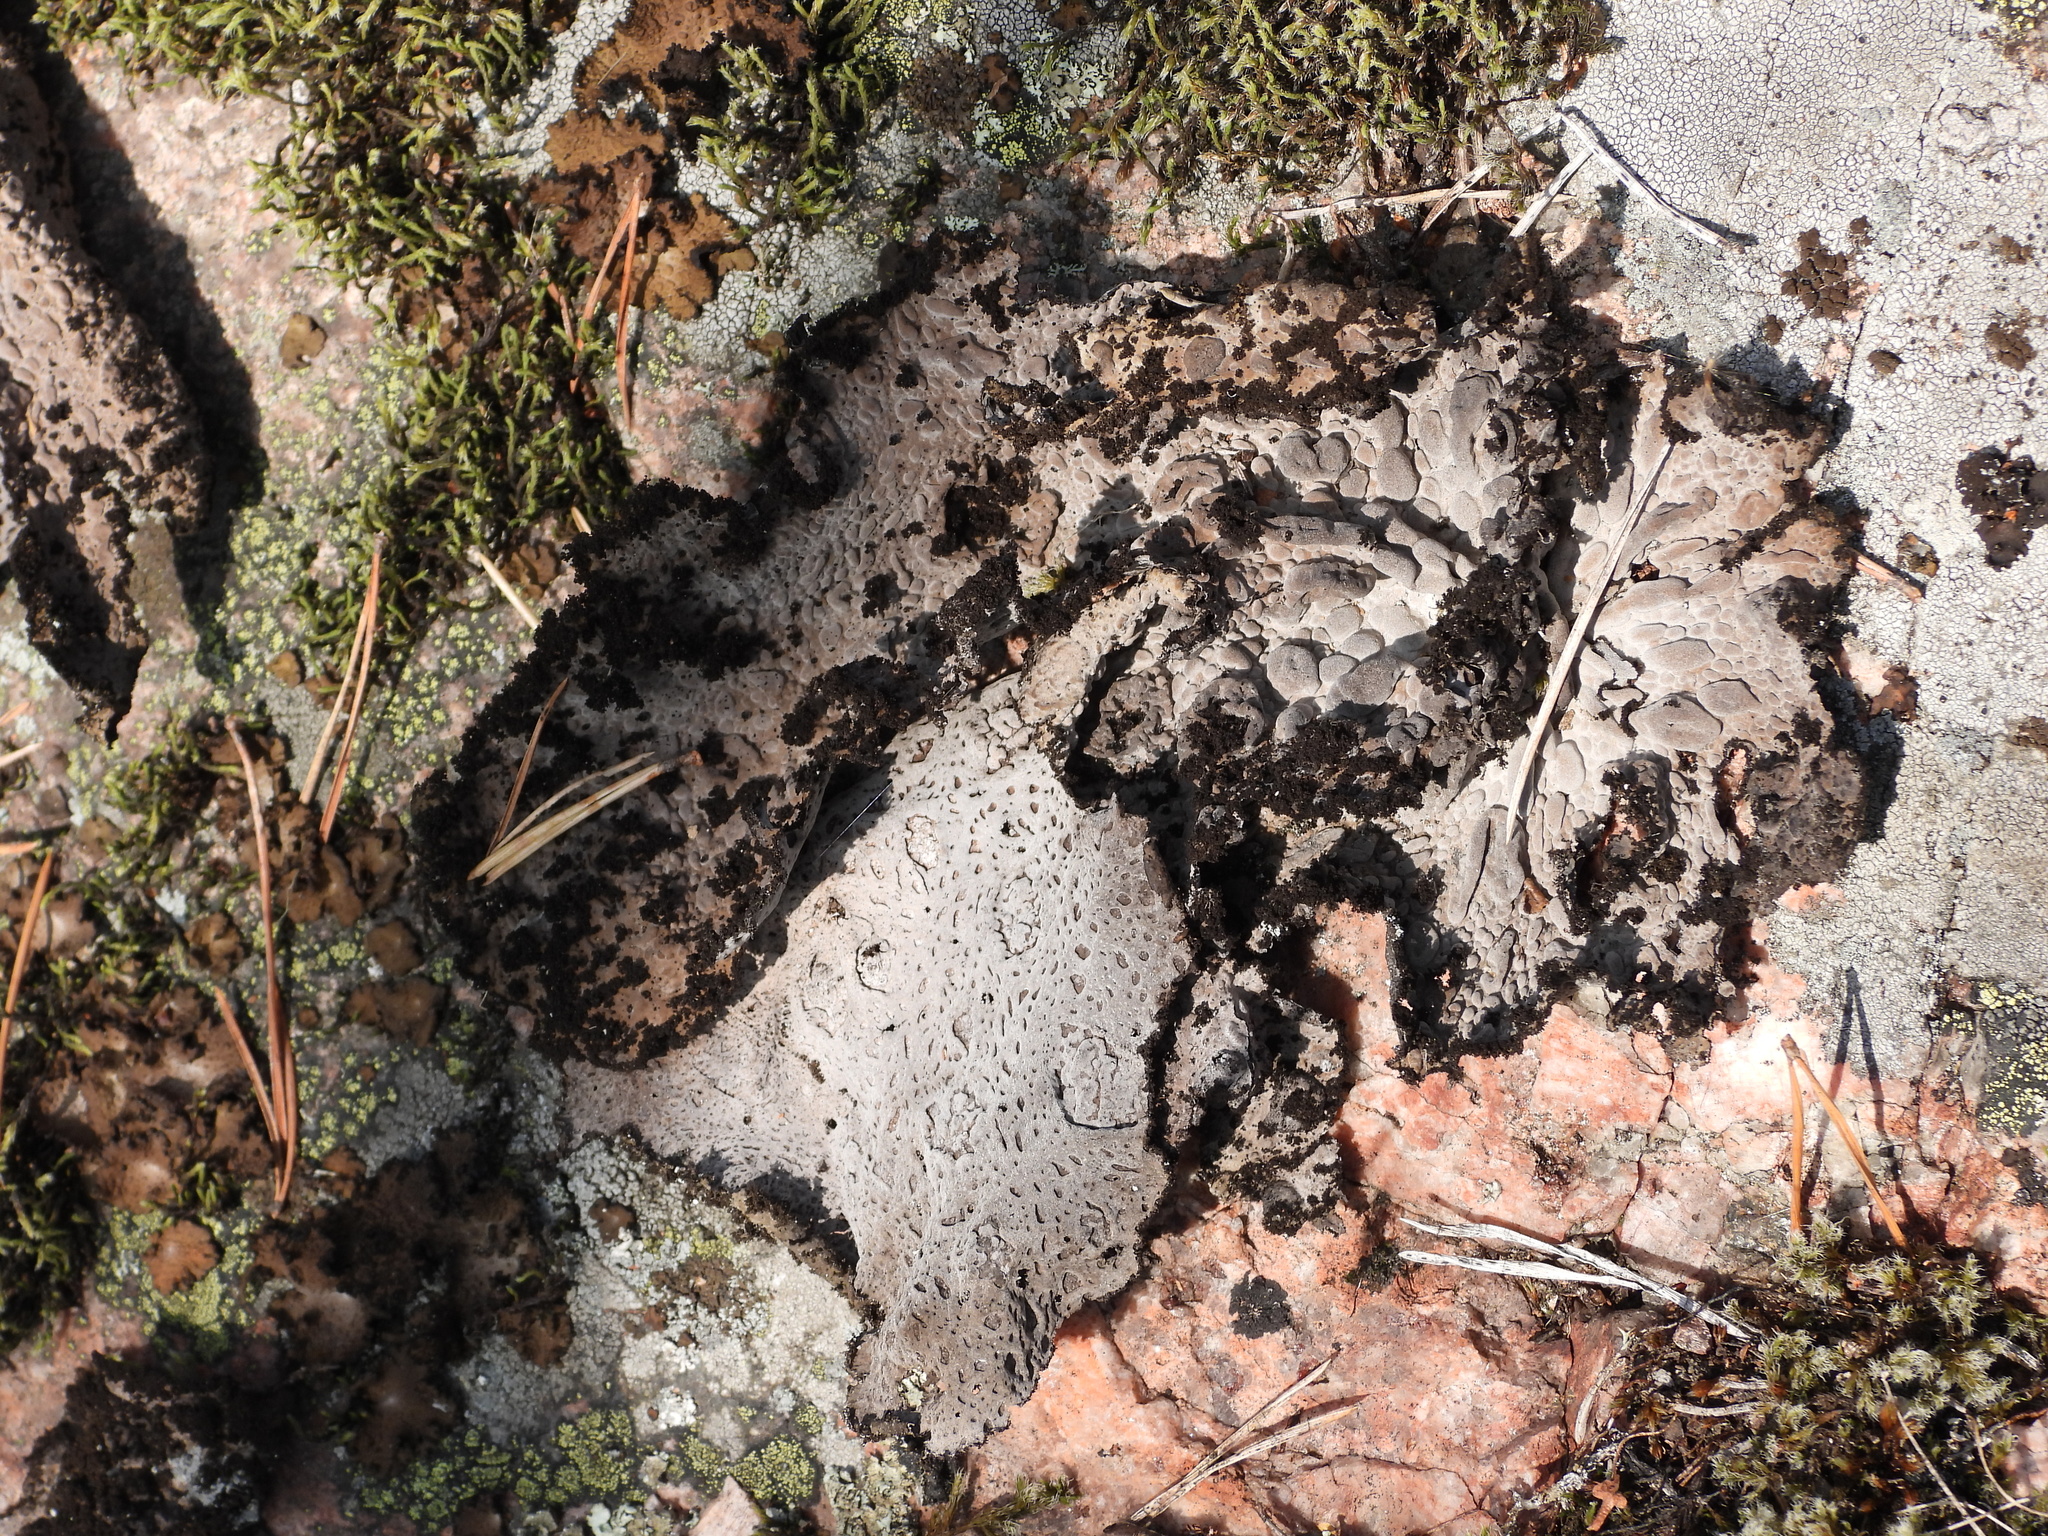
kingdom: Fungi
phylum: Ascomycota
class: Lecanoromycetes
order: Umbilicariales
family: Umbilicariaceae
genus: Lasallia
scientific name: Lasallia pustulata
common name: Blistered toadskin lichen
